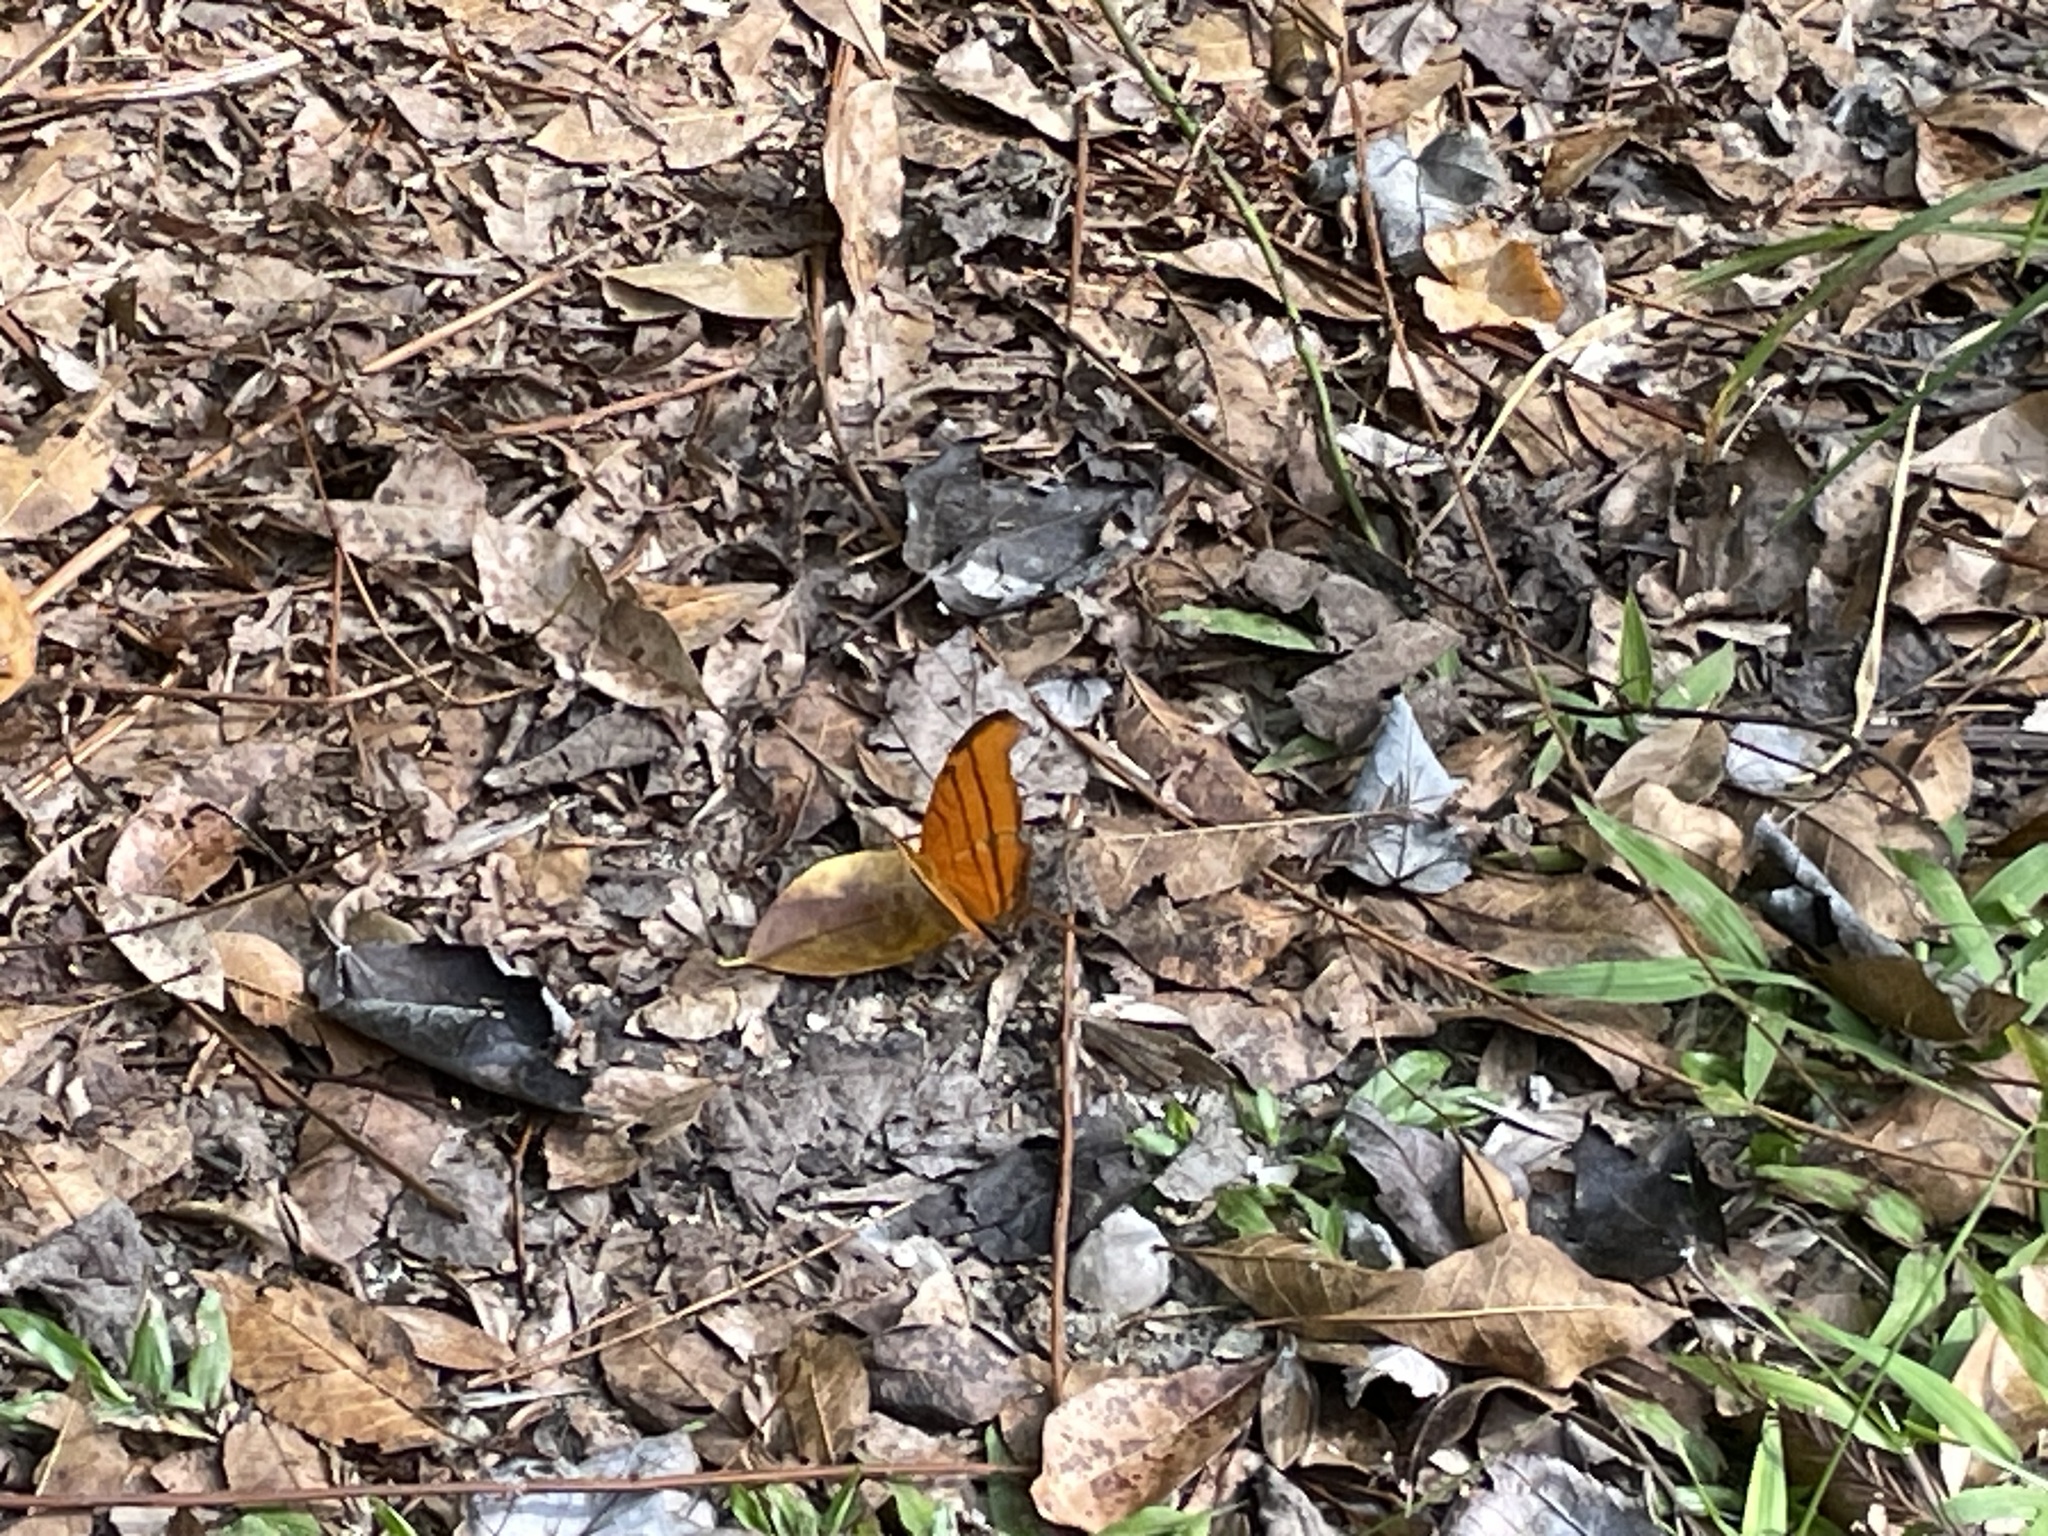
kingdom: Animalia
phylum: Arthropoda
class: Insecta
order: Lepidoptera
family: Nymphalidae
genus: Marpesia
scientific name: Marpesia petreus
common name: Red dagger wing
